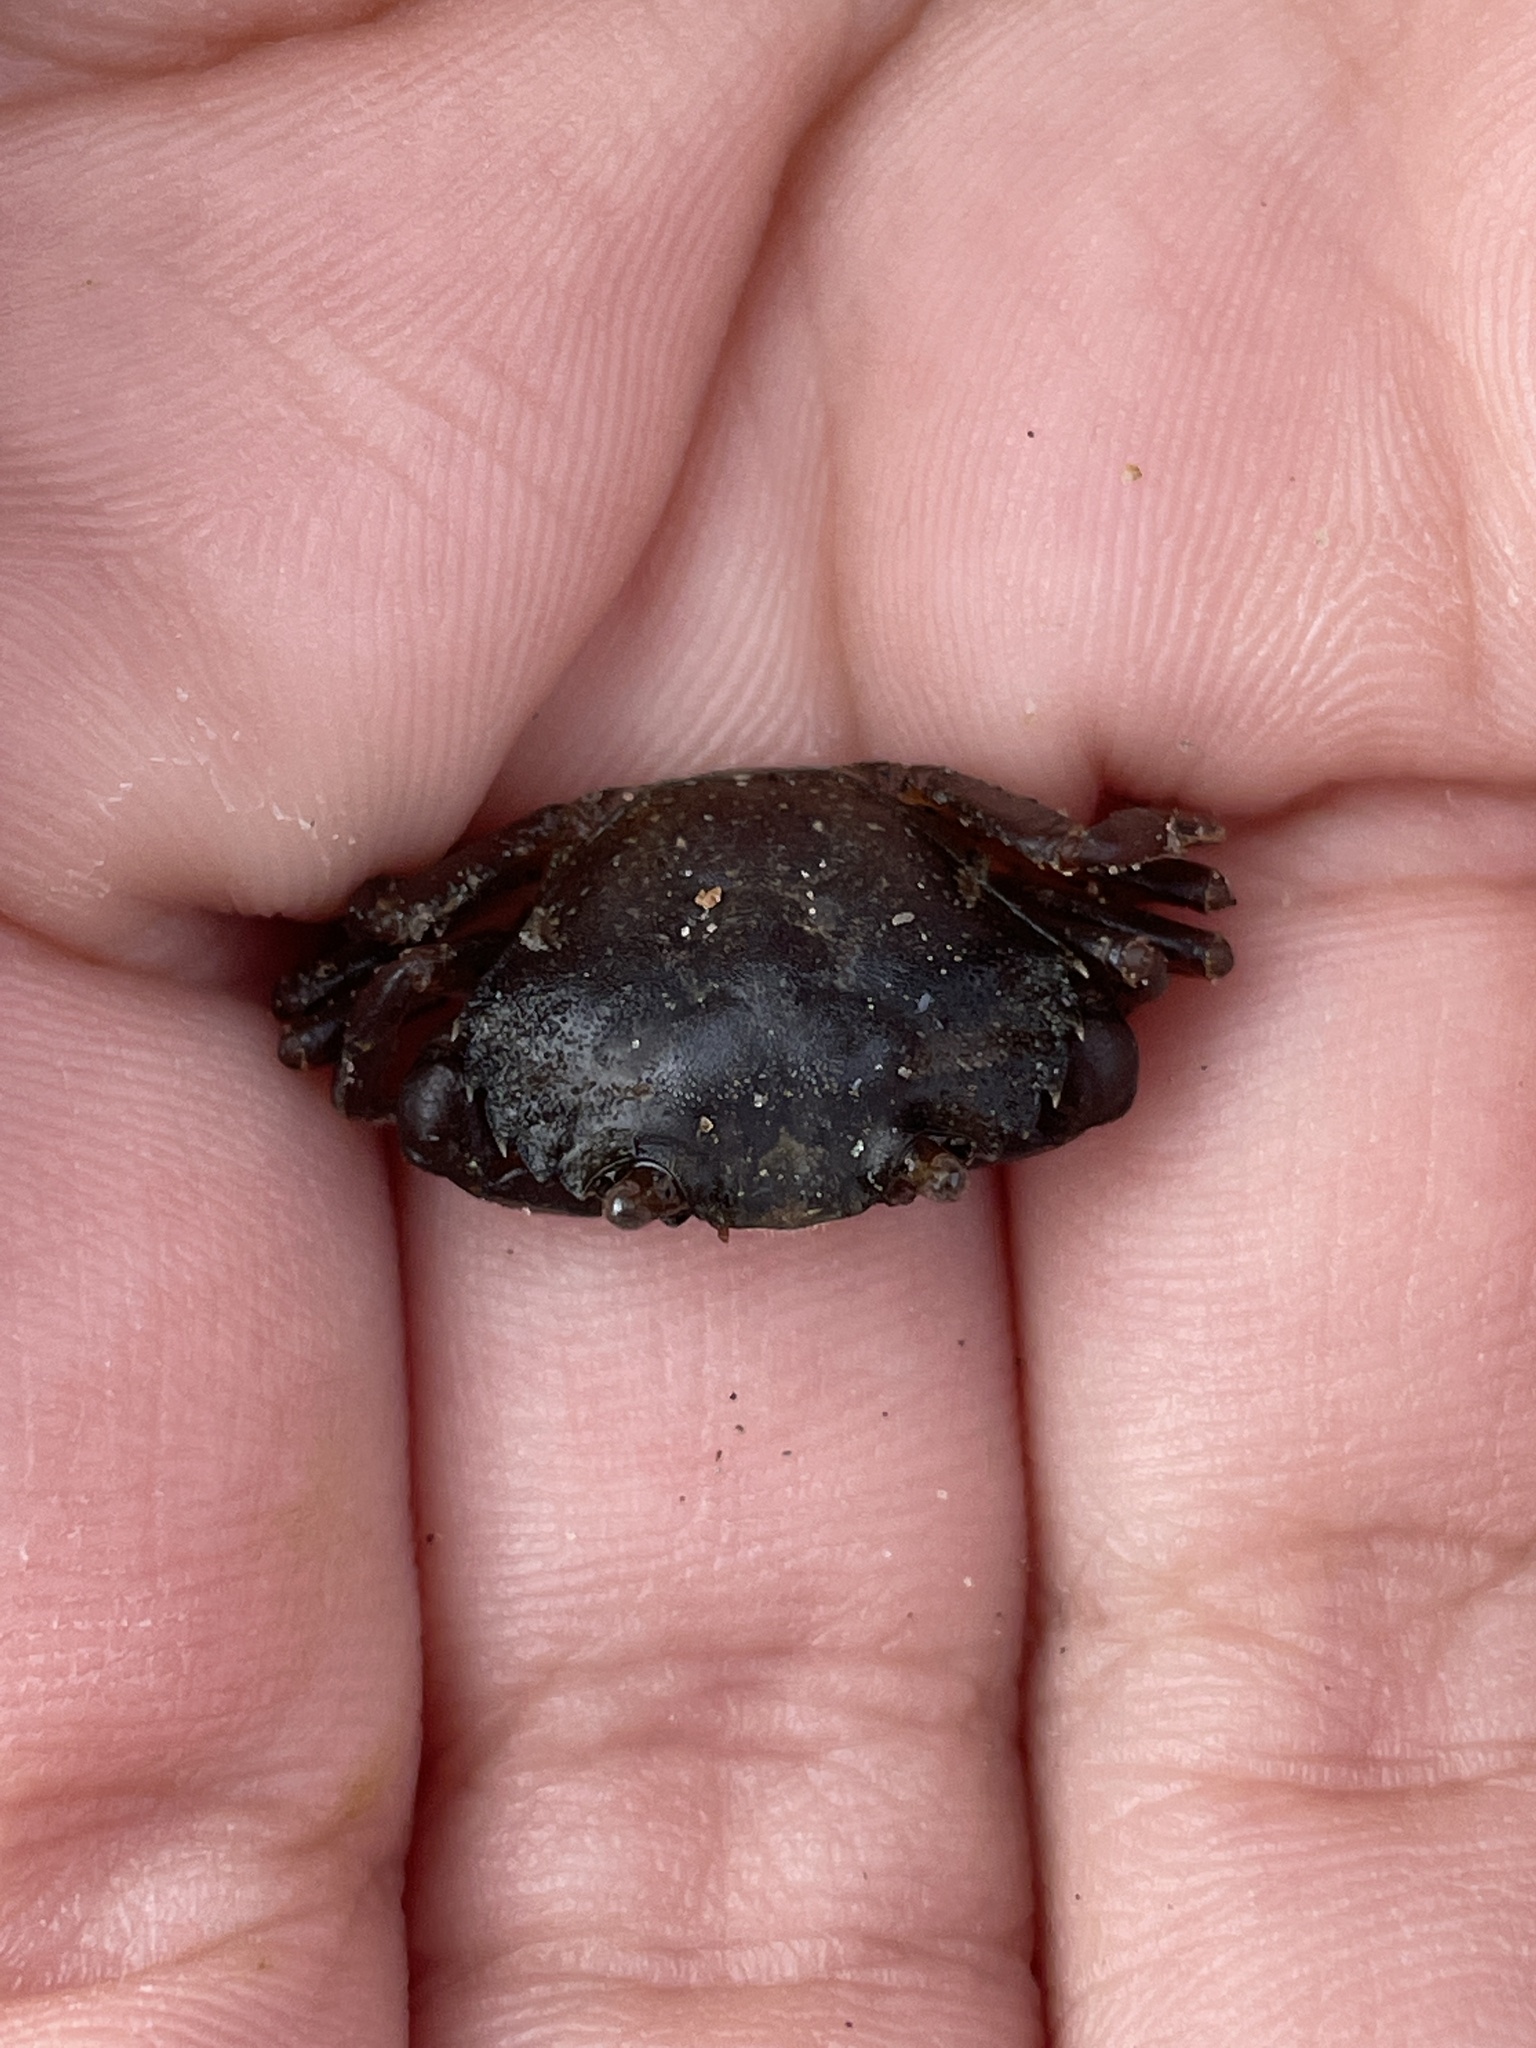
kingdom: Animalia
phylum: Arthropoda
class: Malacostraca
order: Decapoda
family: Carcinidae
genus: Carcinus
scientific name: Carcinus maenas
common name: European green crab
